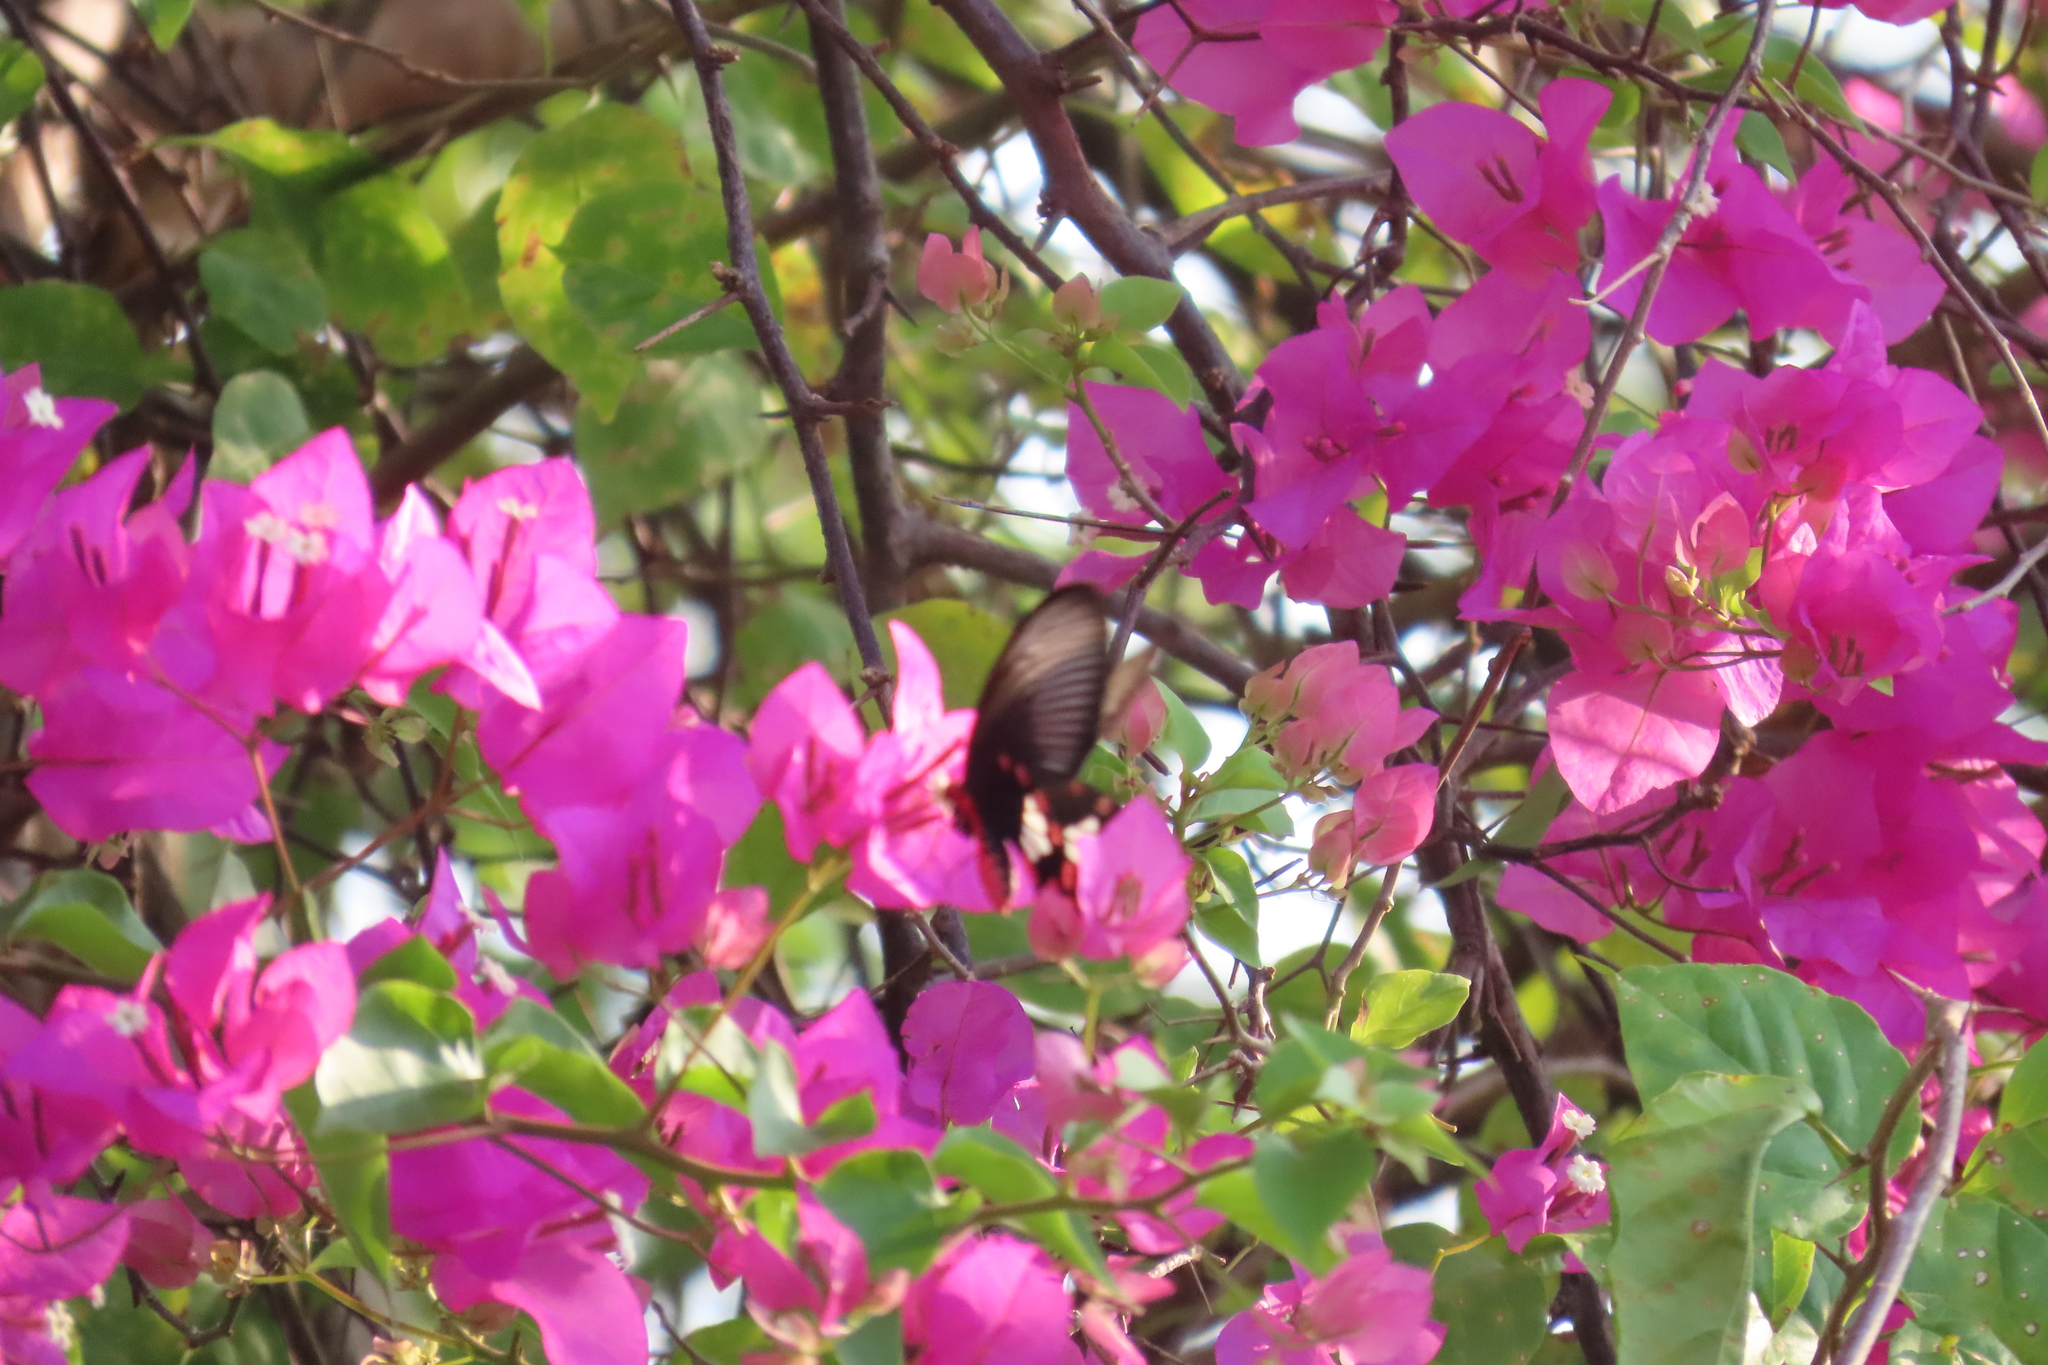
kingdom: Animalia
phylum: Arthropoda
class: Insecta
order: Lepidoptera
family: Papilionidae
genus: Pachliopta
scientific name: Pachliopta aristolochiae
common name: Common rose
